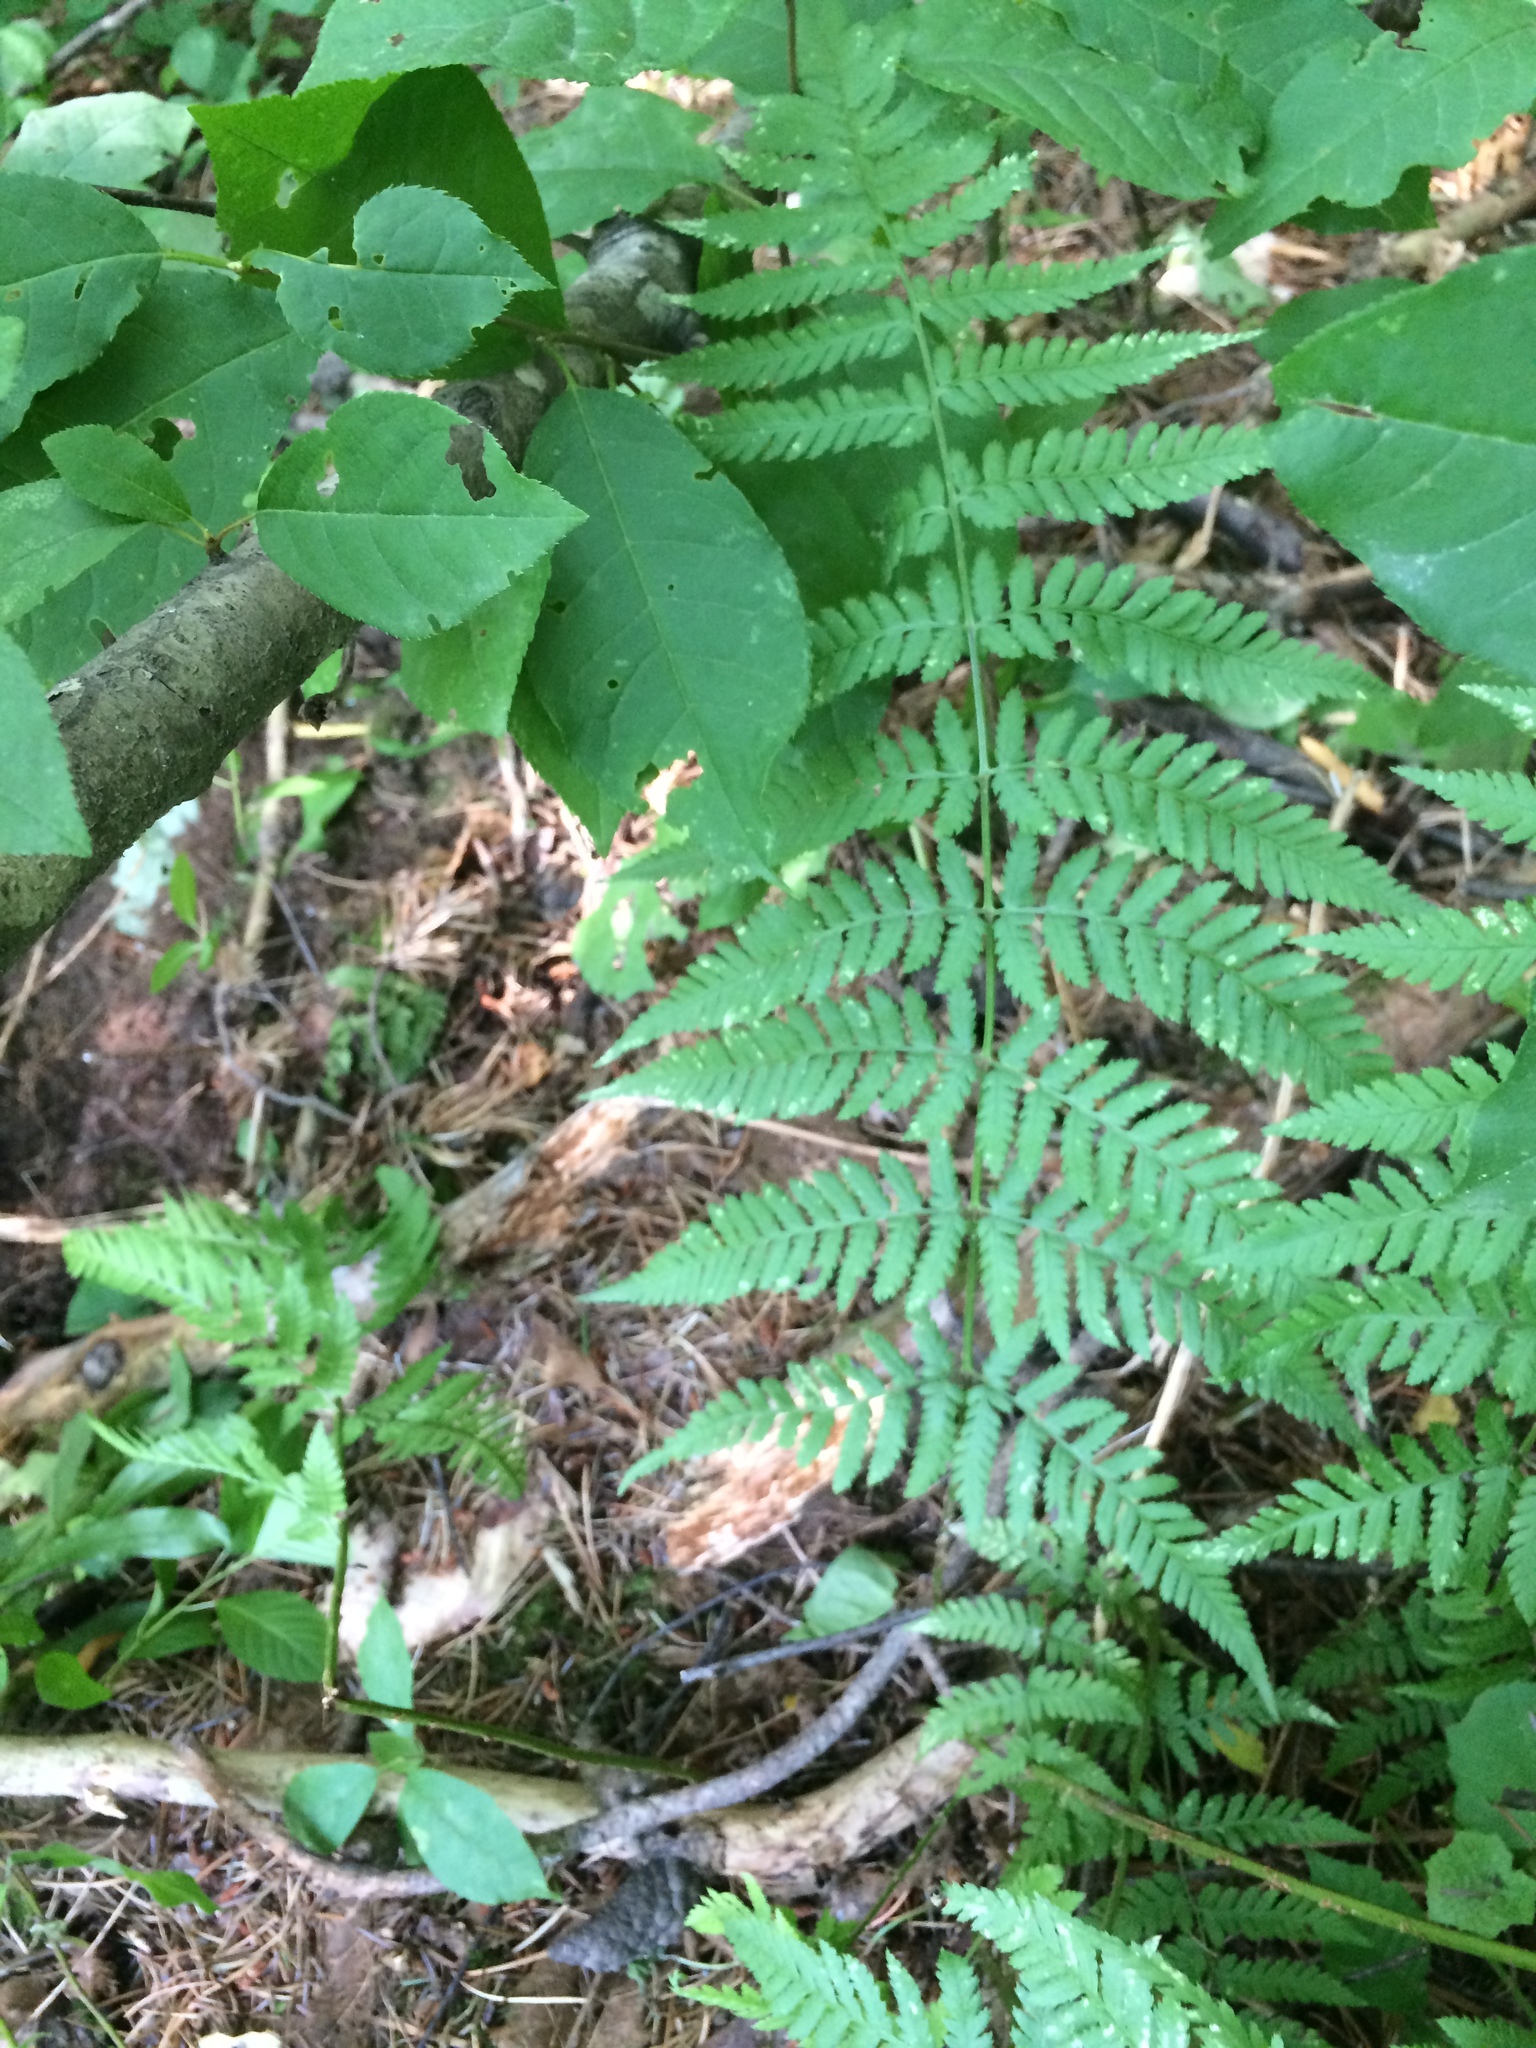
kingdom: Plantae
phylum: Tracheophyta
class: Polypodiopsida
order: Polypodiales
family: Dryopteridaceae
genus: Dryopteris
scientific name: Dryopteris carthusiana
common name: Narrow buckler-fern
